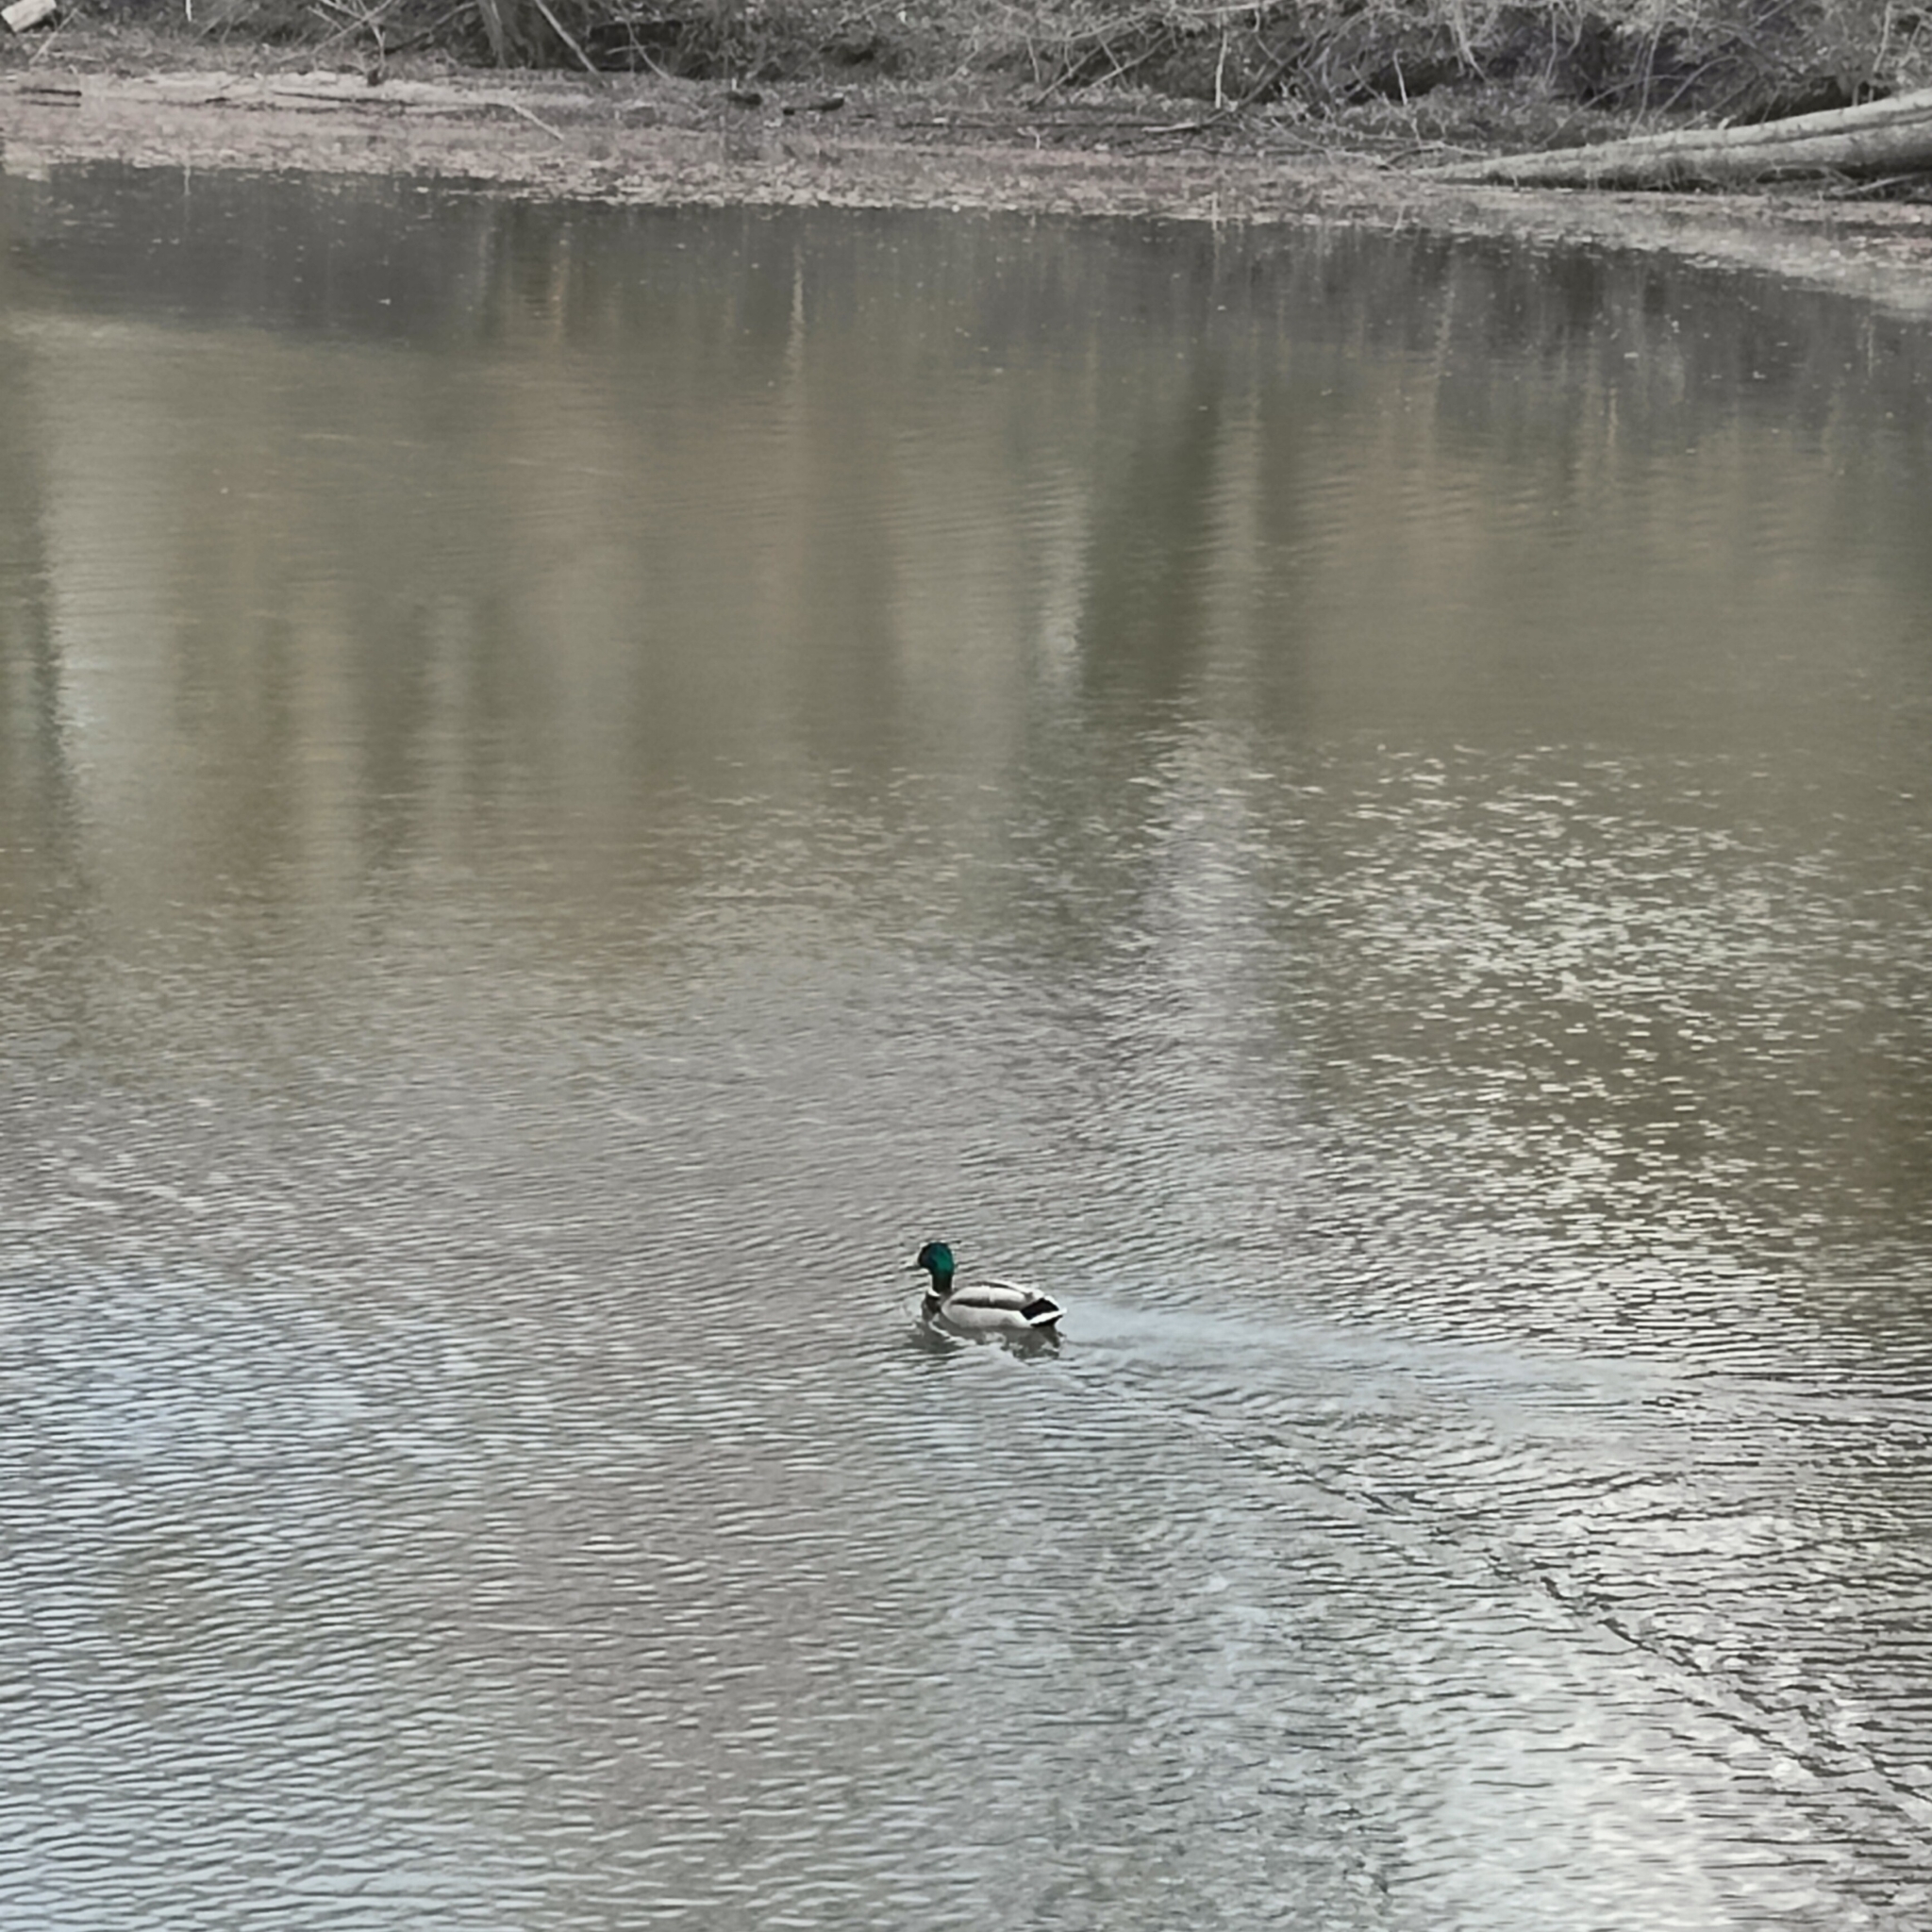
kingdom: Animalia
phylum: Chordata
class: Aves
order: Anseriformes
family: Anatidae
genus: Anas
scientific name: Anas platyrhynchos
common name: Mallard
